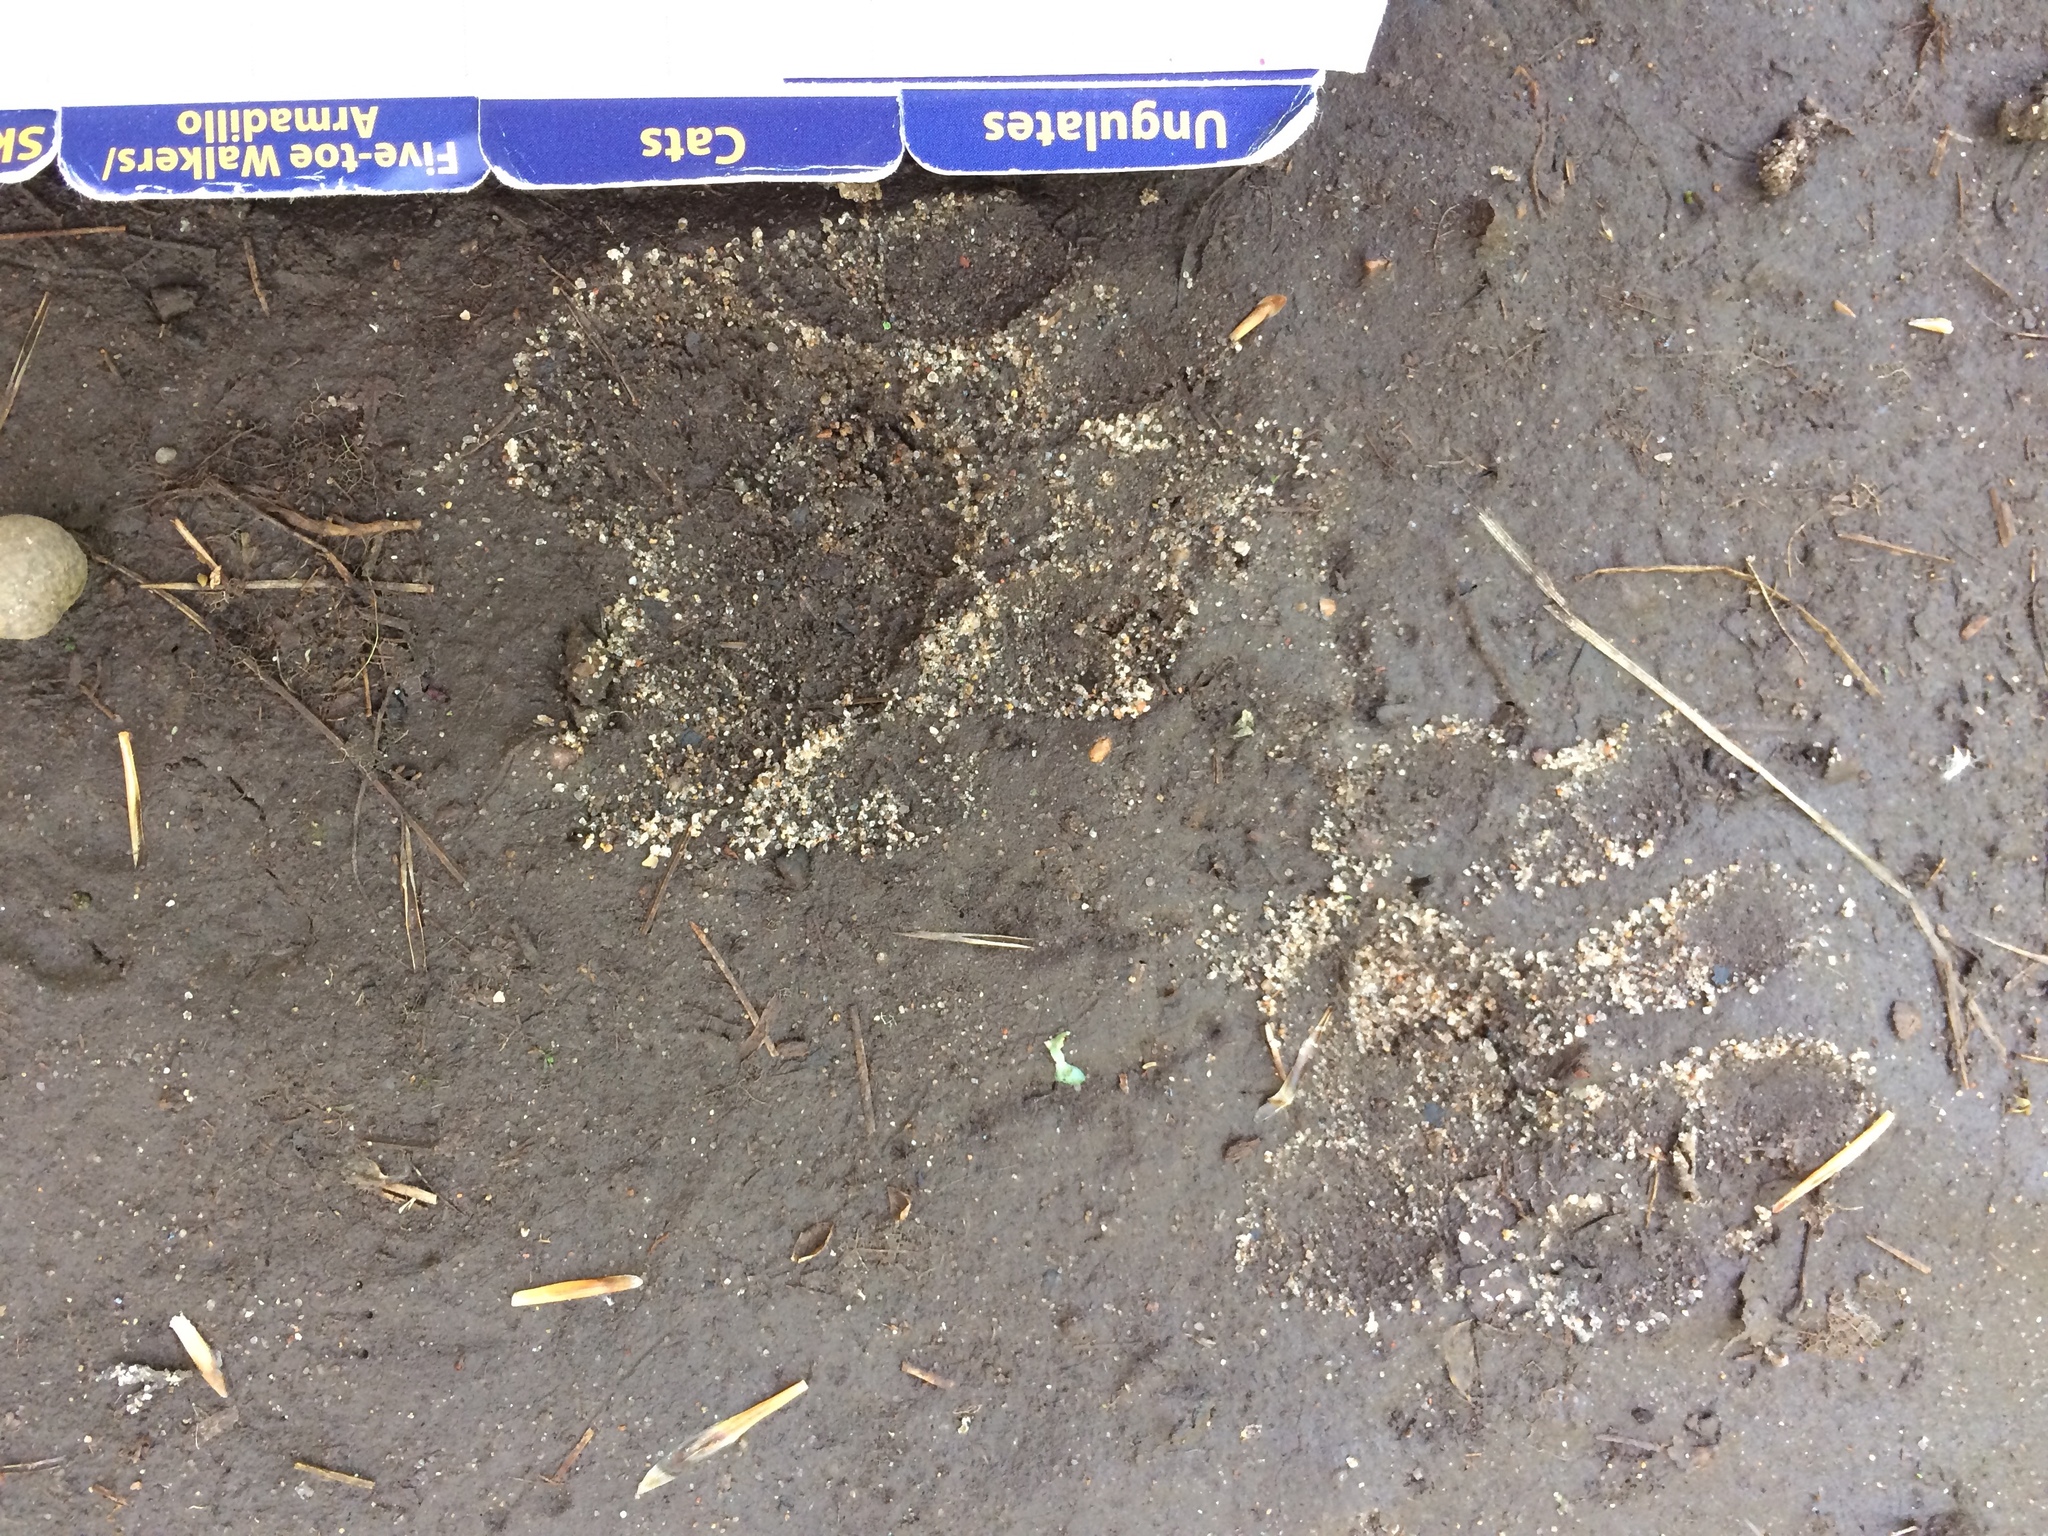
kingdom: Animalia
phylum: Chordata
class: Mammalia
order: Carnivora
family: Procyonidae
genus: Procyon
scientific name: Procyon lotor
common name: Raccoon
